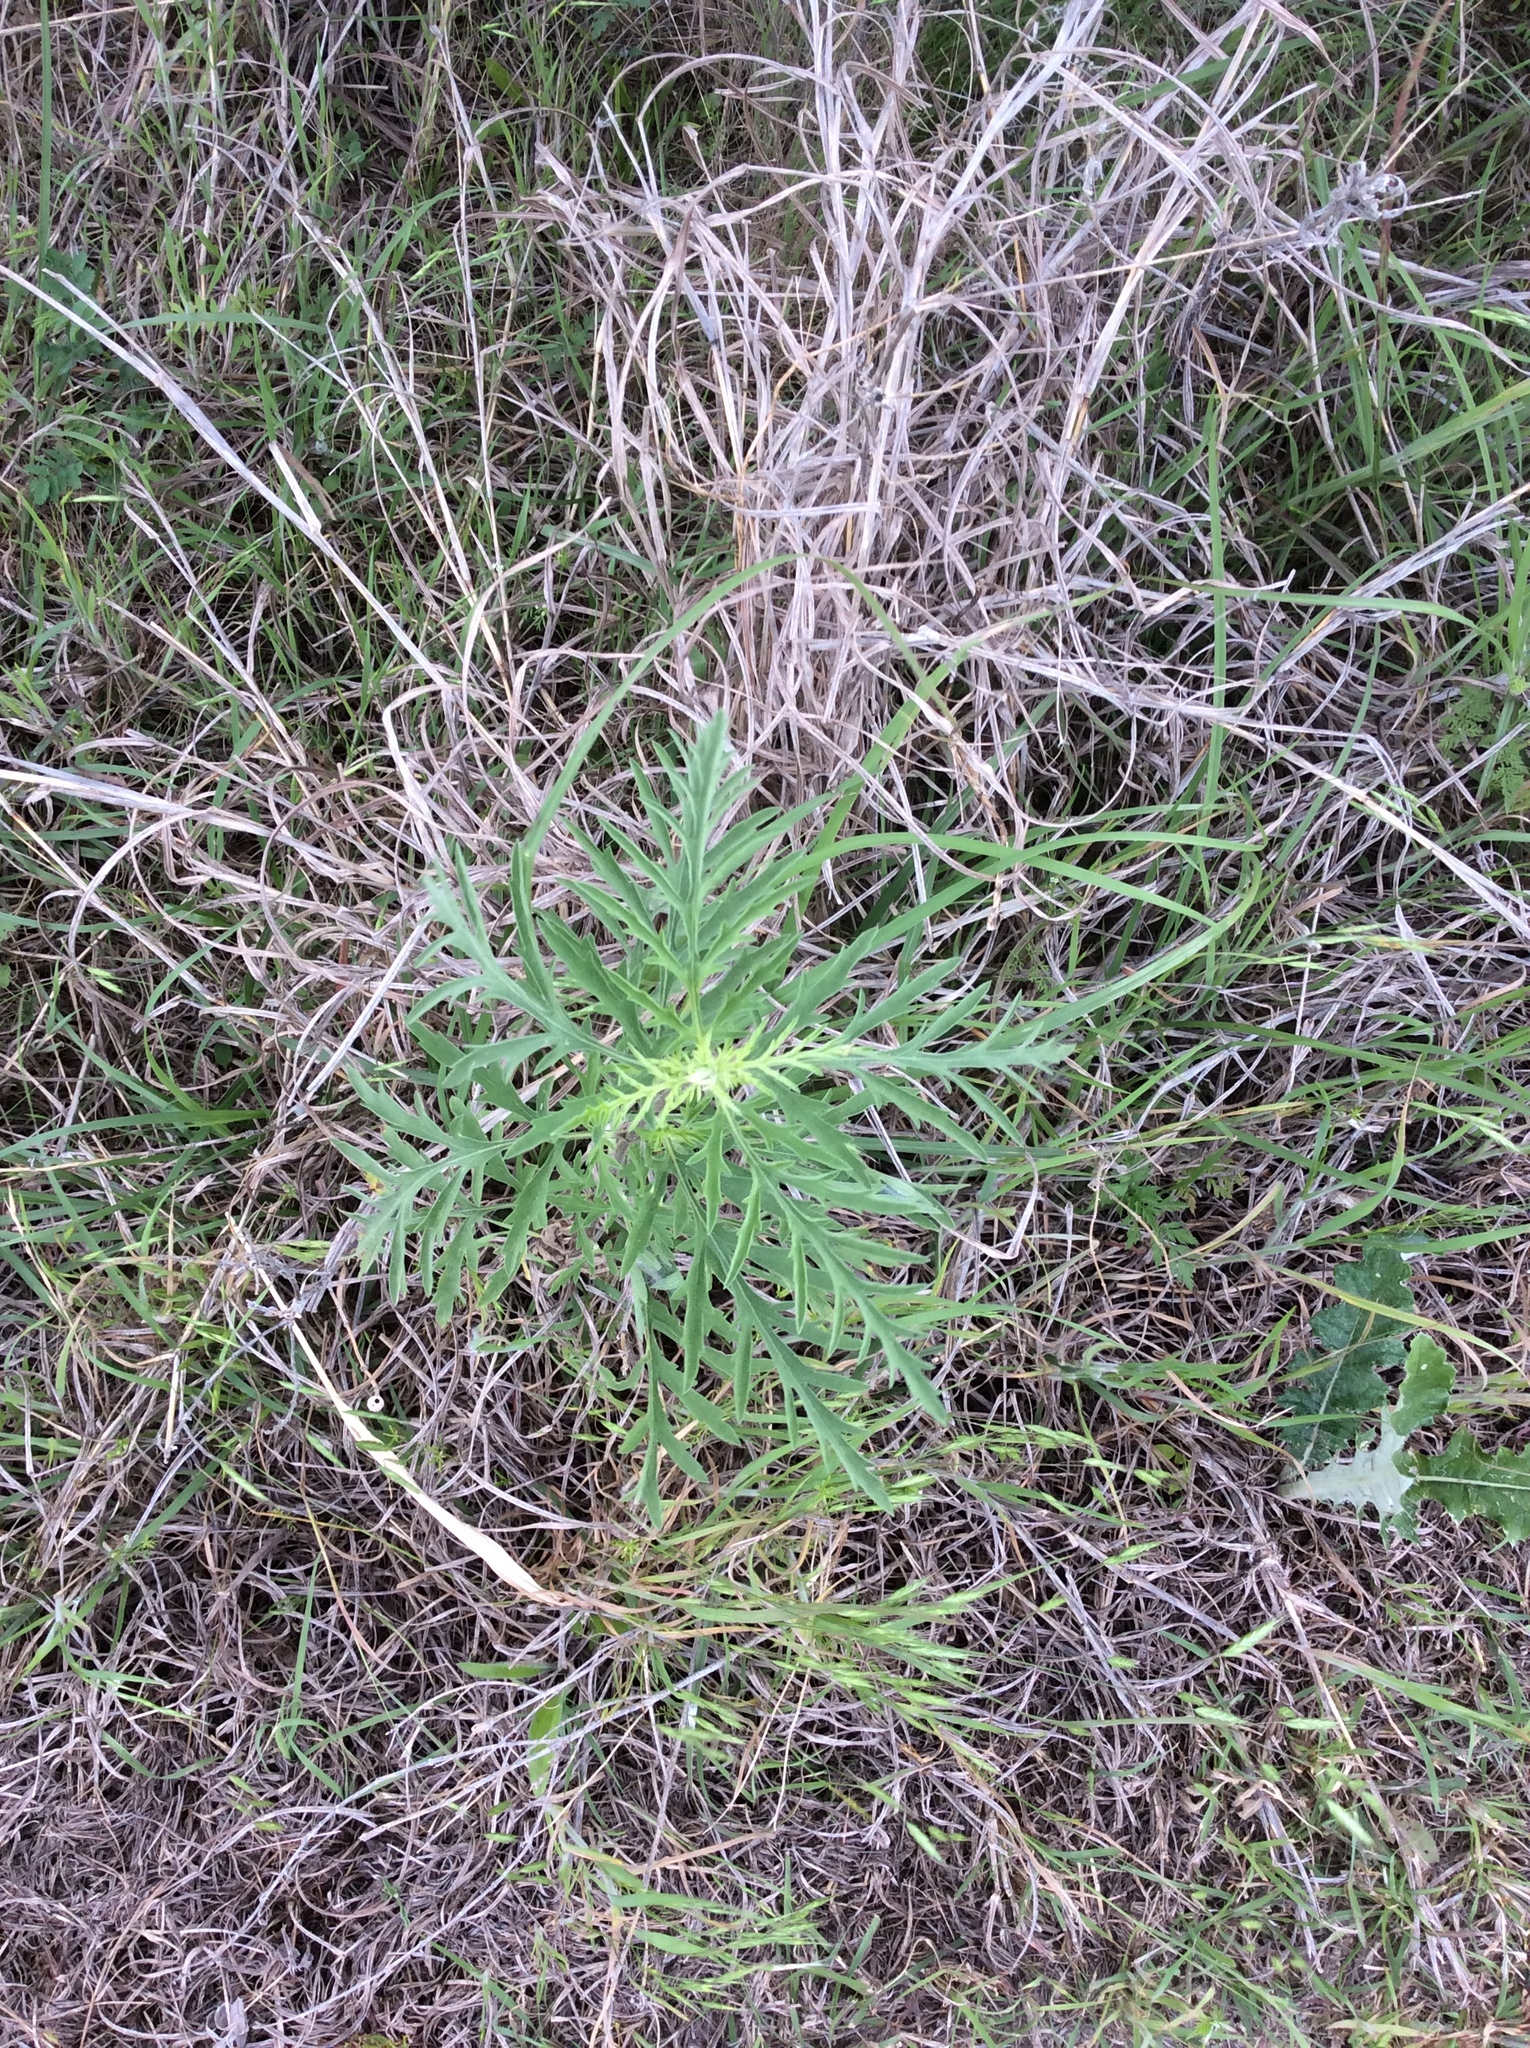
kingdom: Plantae
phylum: Tracheophyta
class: Magnoliopsida
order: Asterales
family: Asteraceae
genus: Ambrosia
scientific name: Ambrosia psilostachya
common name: Perennial ragweed
